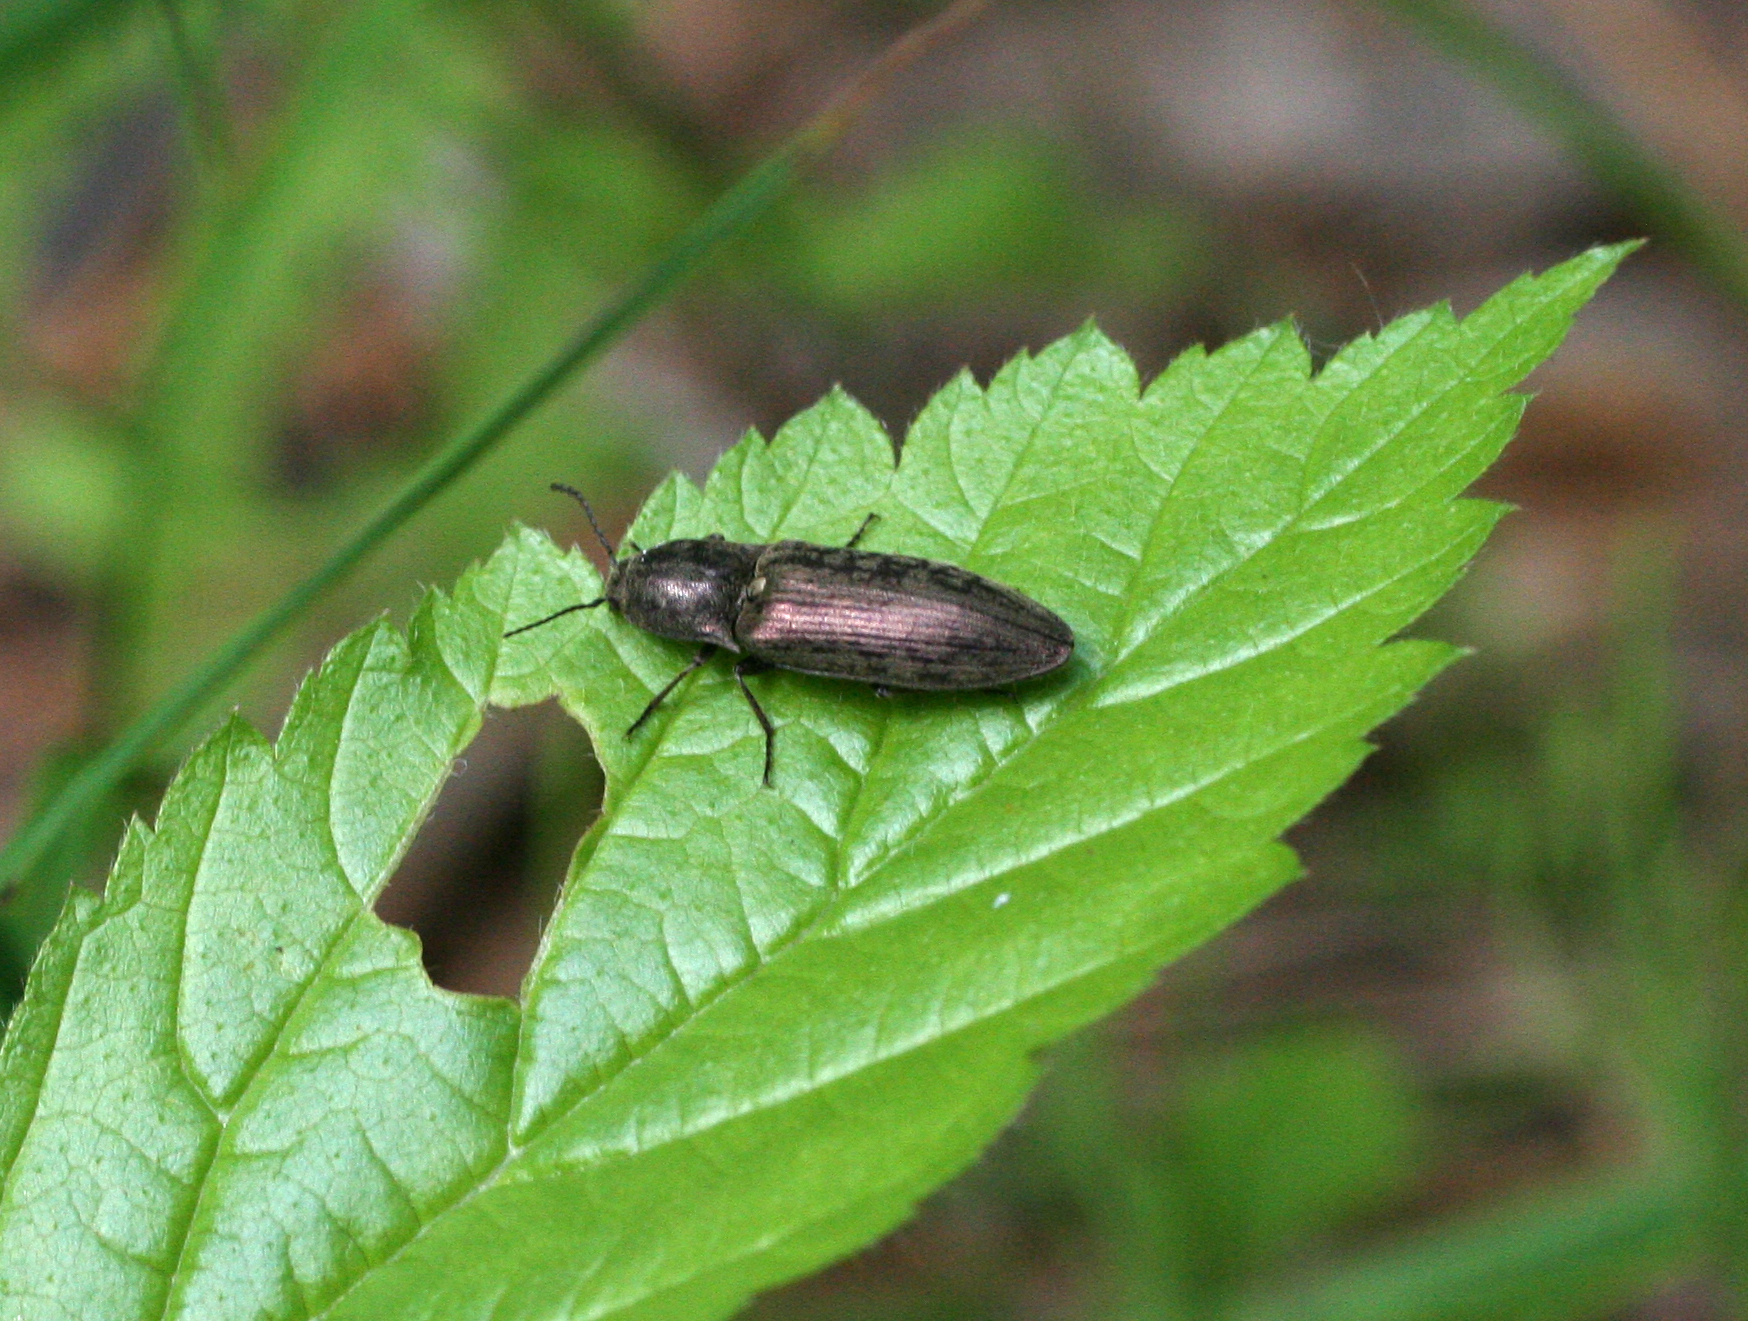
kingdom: Animalia
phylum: Arthropoda
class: Insecta
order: Coleoptera
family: Elateridae
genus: Actenicerus
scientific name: Actenicerus sjaelandicus
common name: Marsh click beetle
